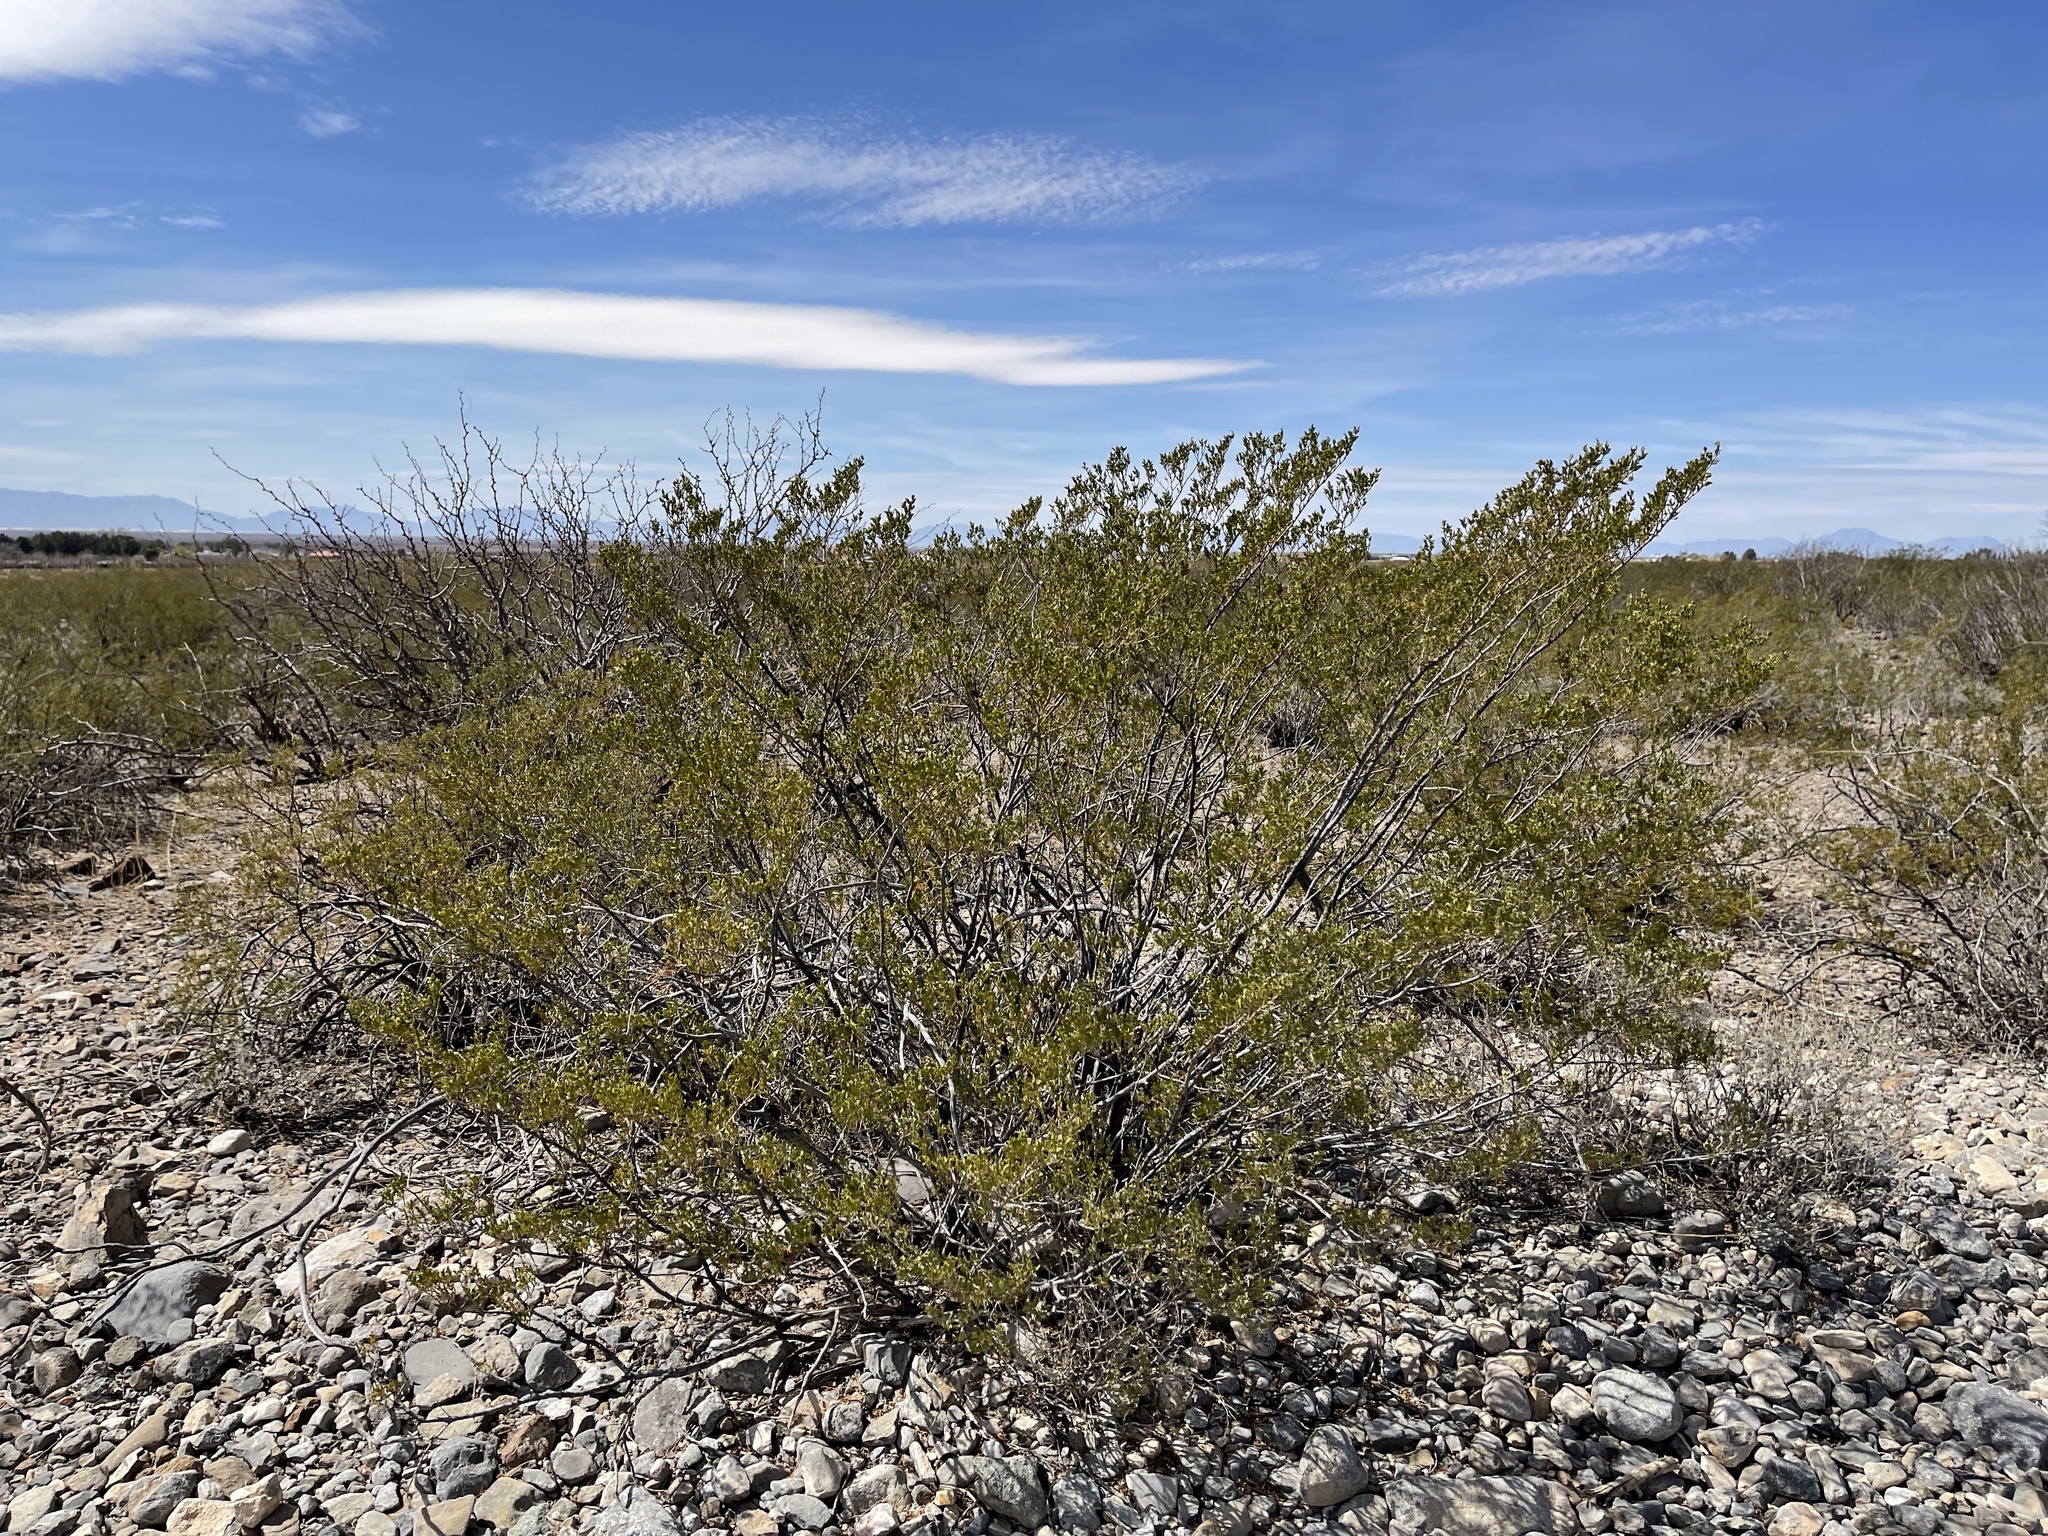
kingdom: Plantae
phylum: Tracheophyta
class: Magnoliopsida
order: Zygophyllales
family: Zygophyllaceae
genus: Larrea
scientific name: Larrea tridentata
